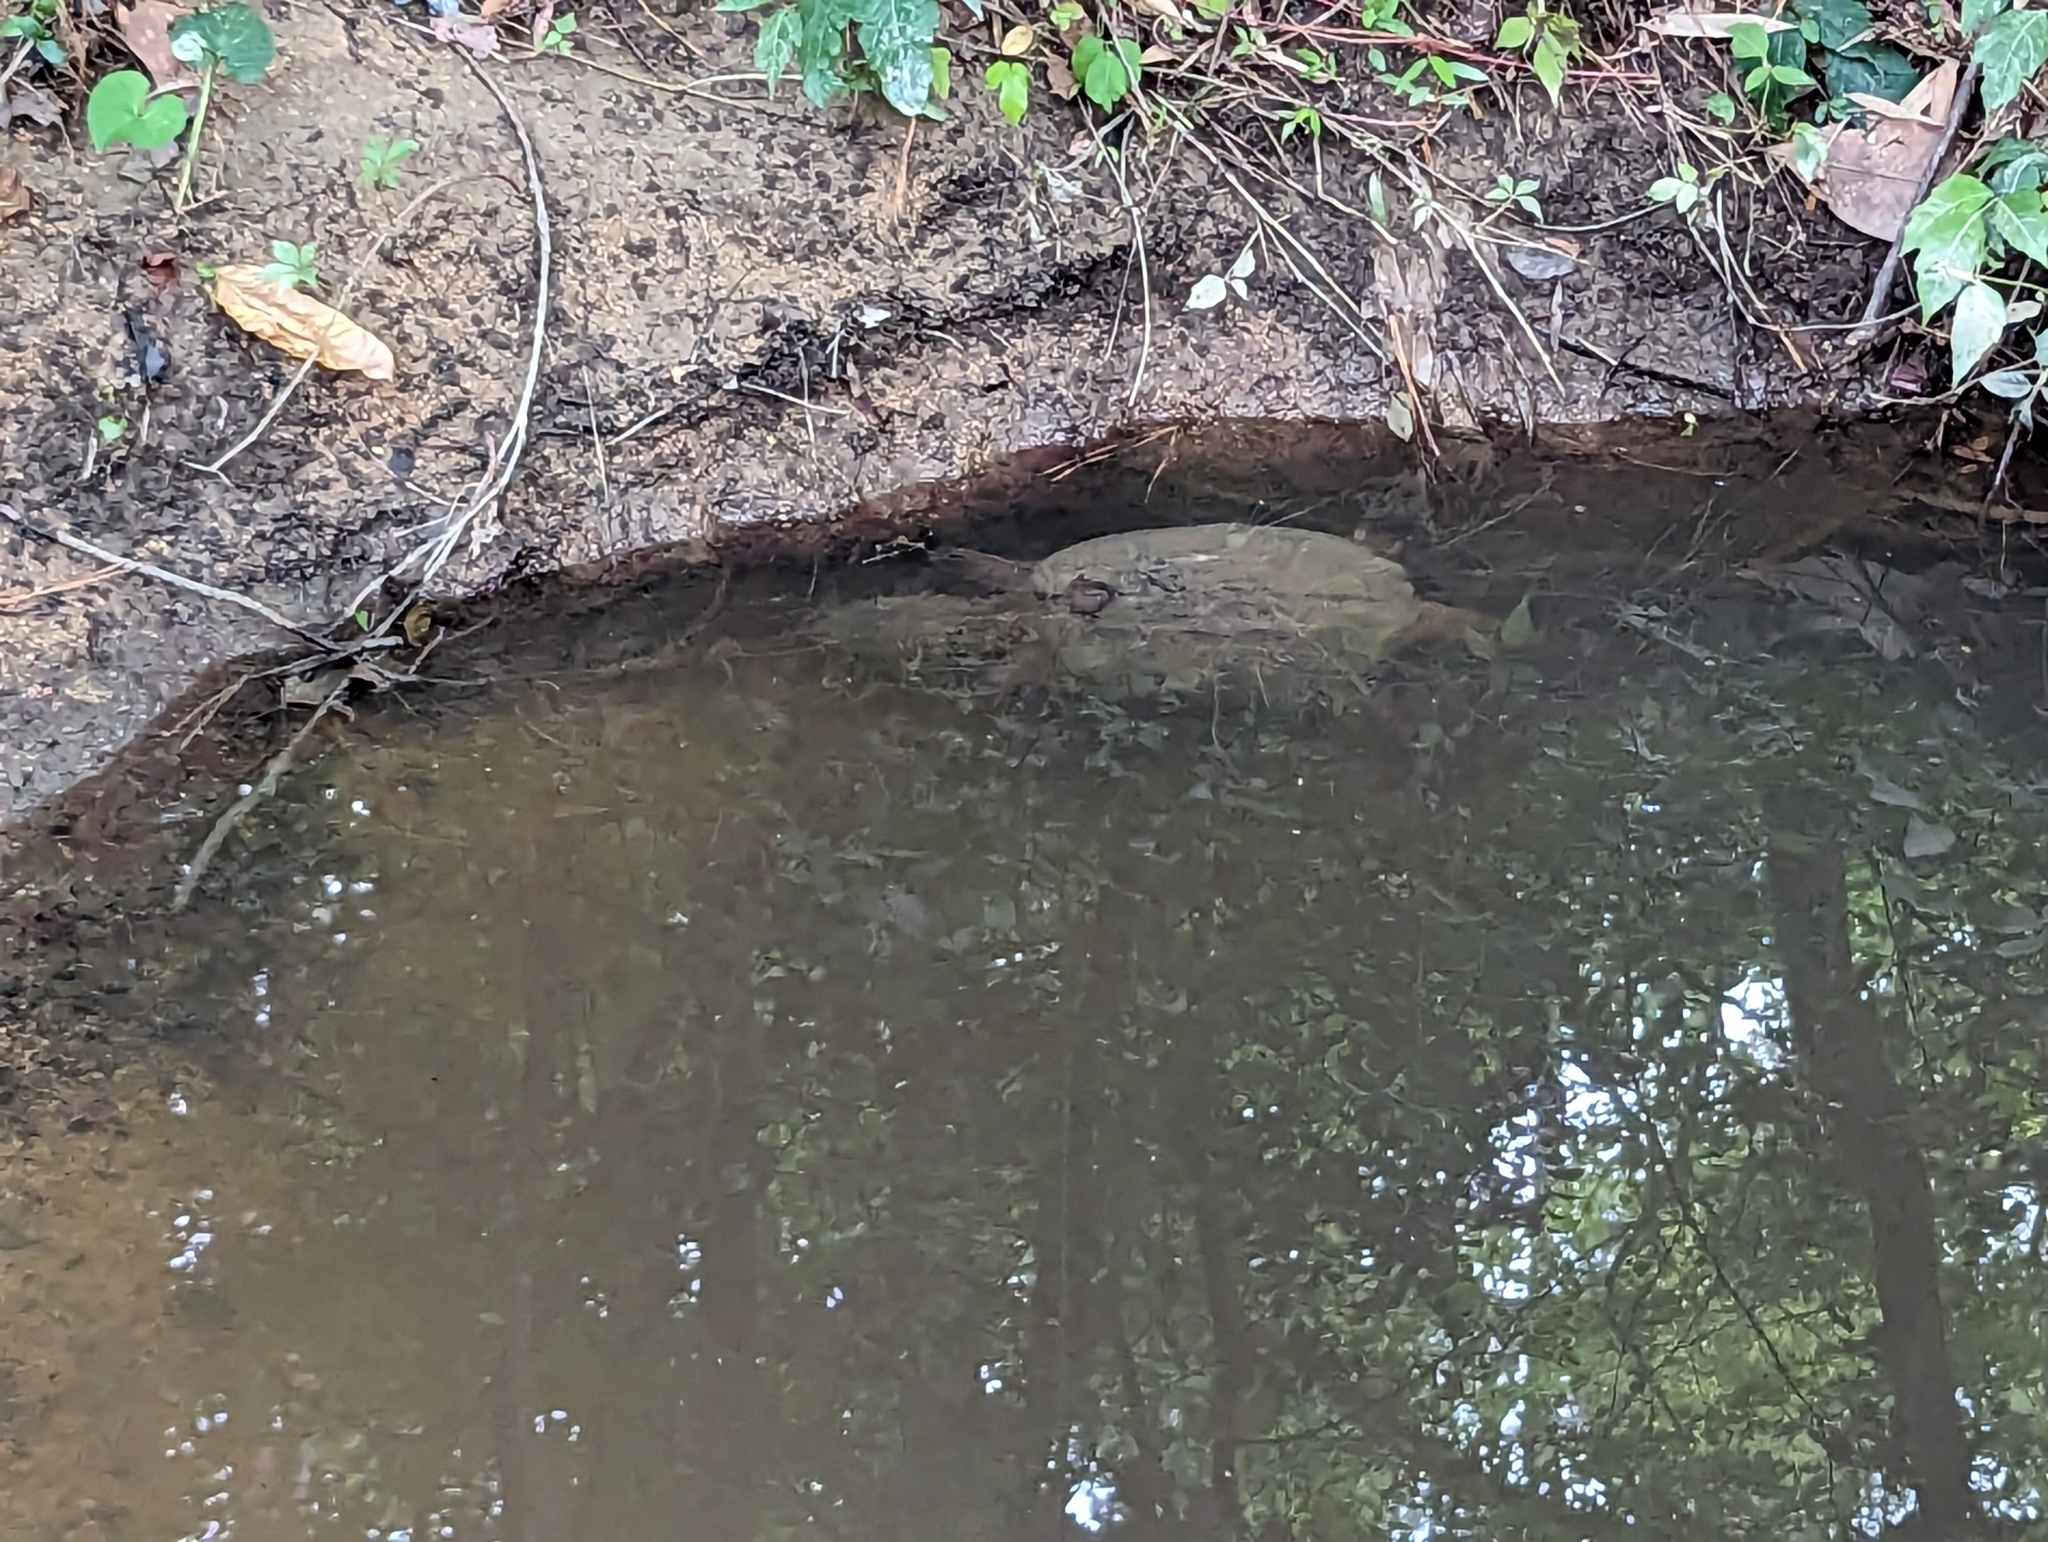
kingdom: Animalia
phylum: Chordata
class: Testudines
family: Chelydridae
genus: Chelydra
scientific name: Chelydra serpentina
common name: Common snapping turtle
